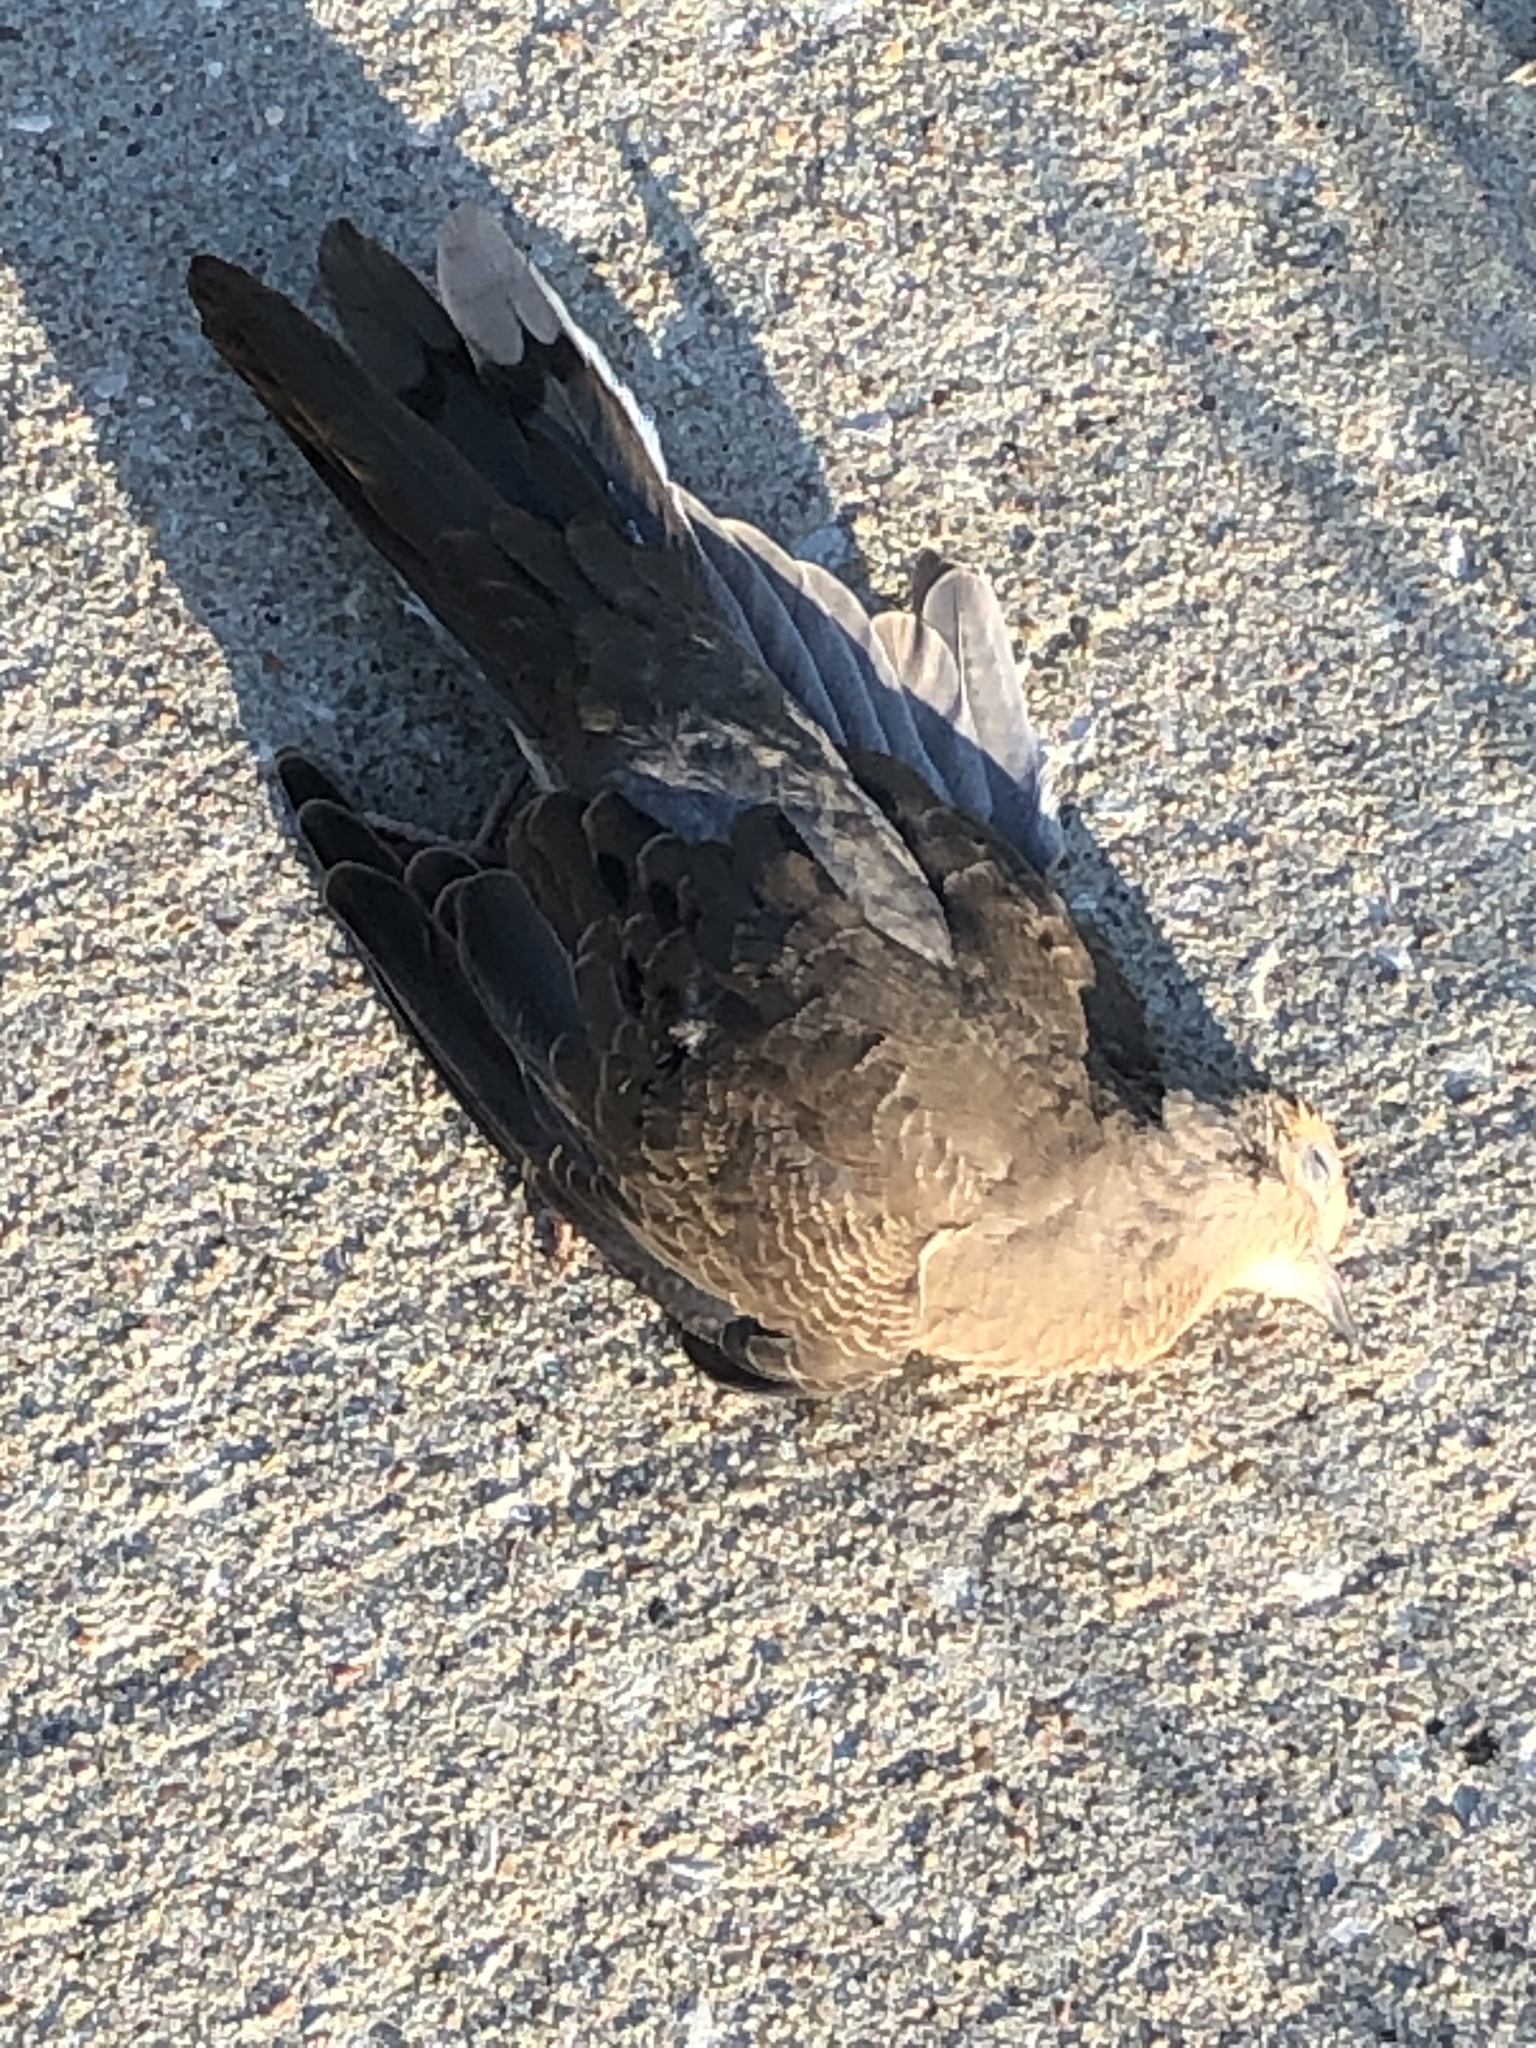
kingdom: Animalia
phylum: Chordata
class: Aves
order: Columbiformes
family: Columbidae
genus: Zenaida
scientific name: Zenaida macroura
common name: Mourning dove
